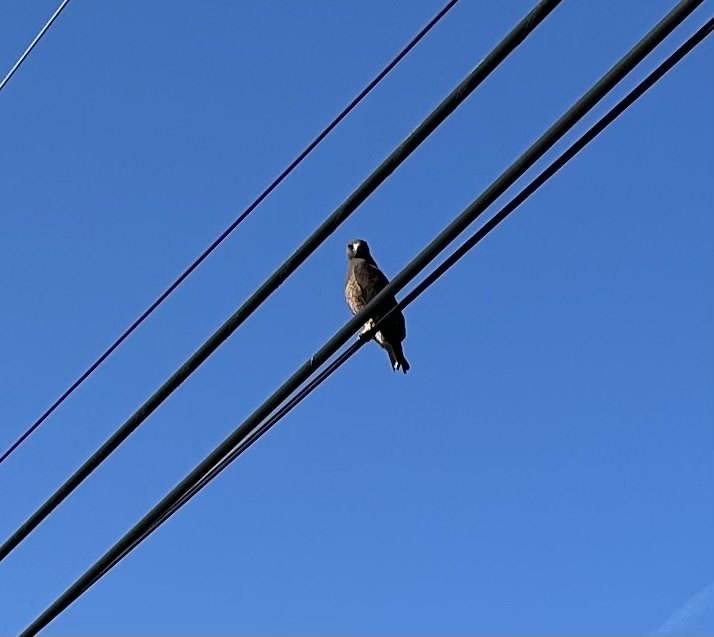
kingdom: Animalia
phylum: Chordata
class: Aves
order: Accipitriformes
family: Accipitridae
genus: Buteo
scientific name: Buteo swainsoni
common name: Swainson's hawk
